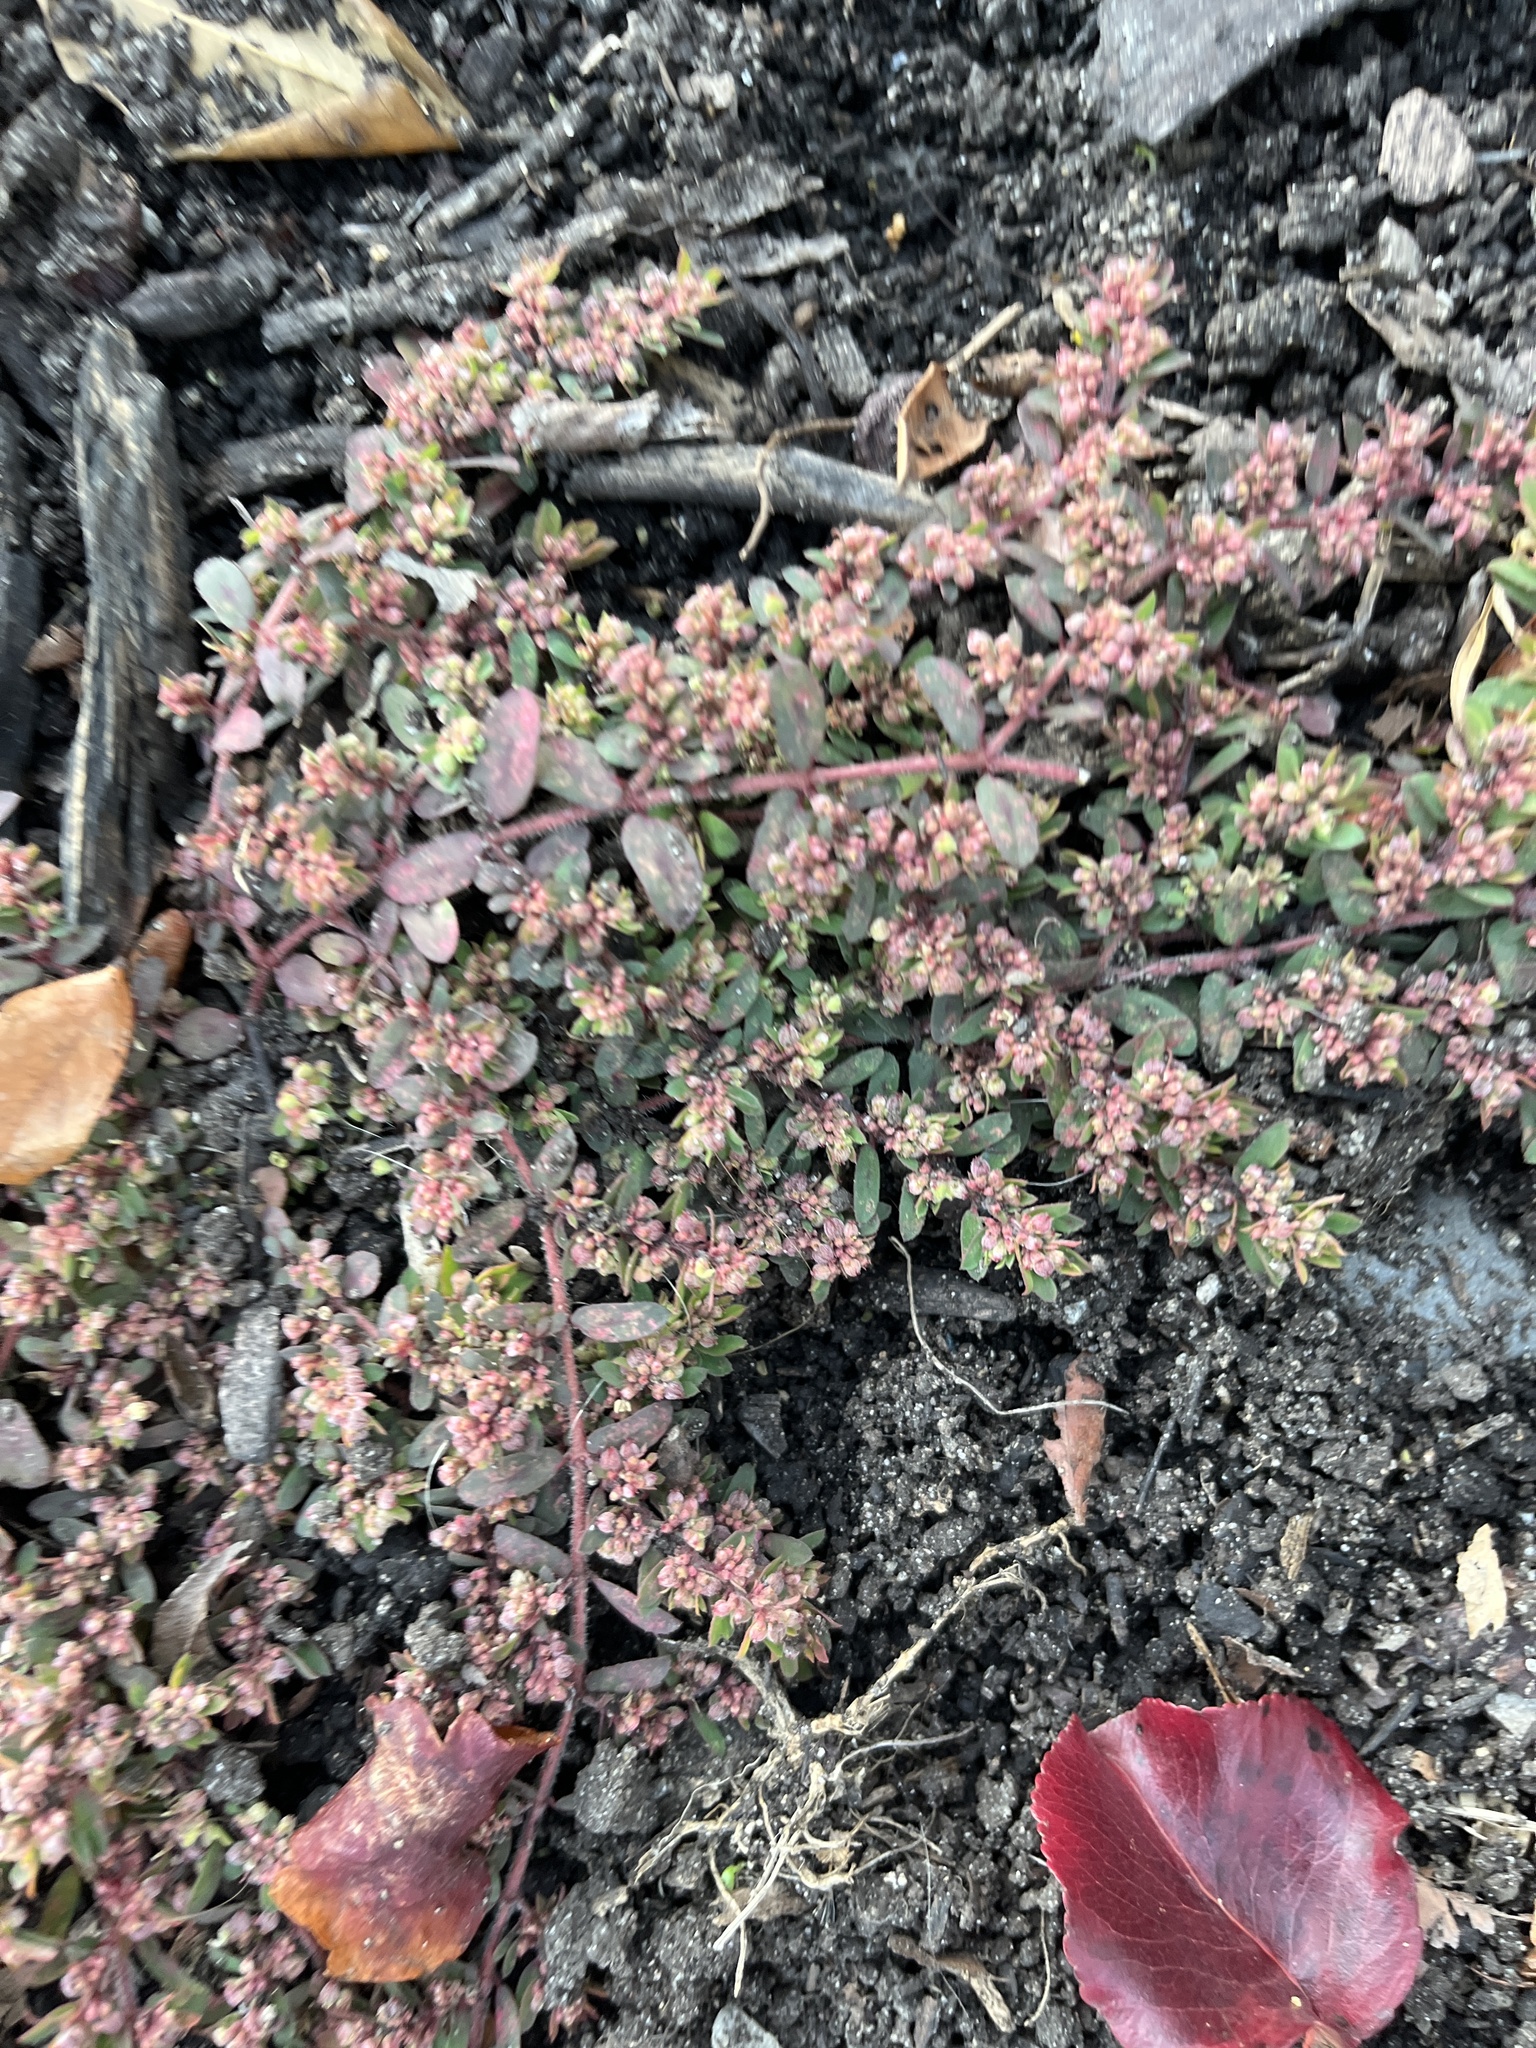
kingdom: Plantae
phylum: Tracheophyta
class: Magnoliopsida
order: Malpighiales
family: Euphorbiaceae
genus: Euphorbia
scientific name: Euphorbia maculata
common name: Spotted spurge
